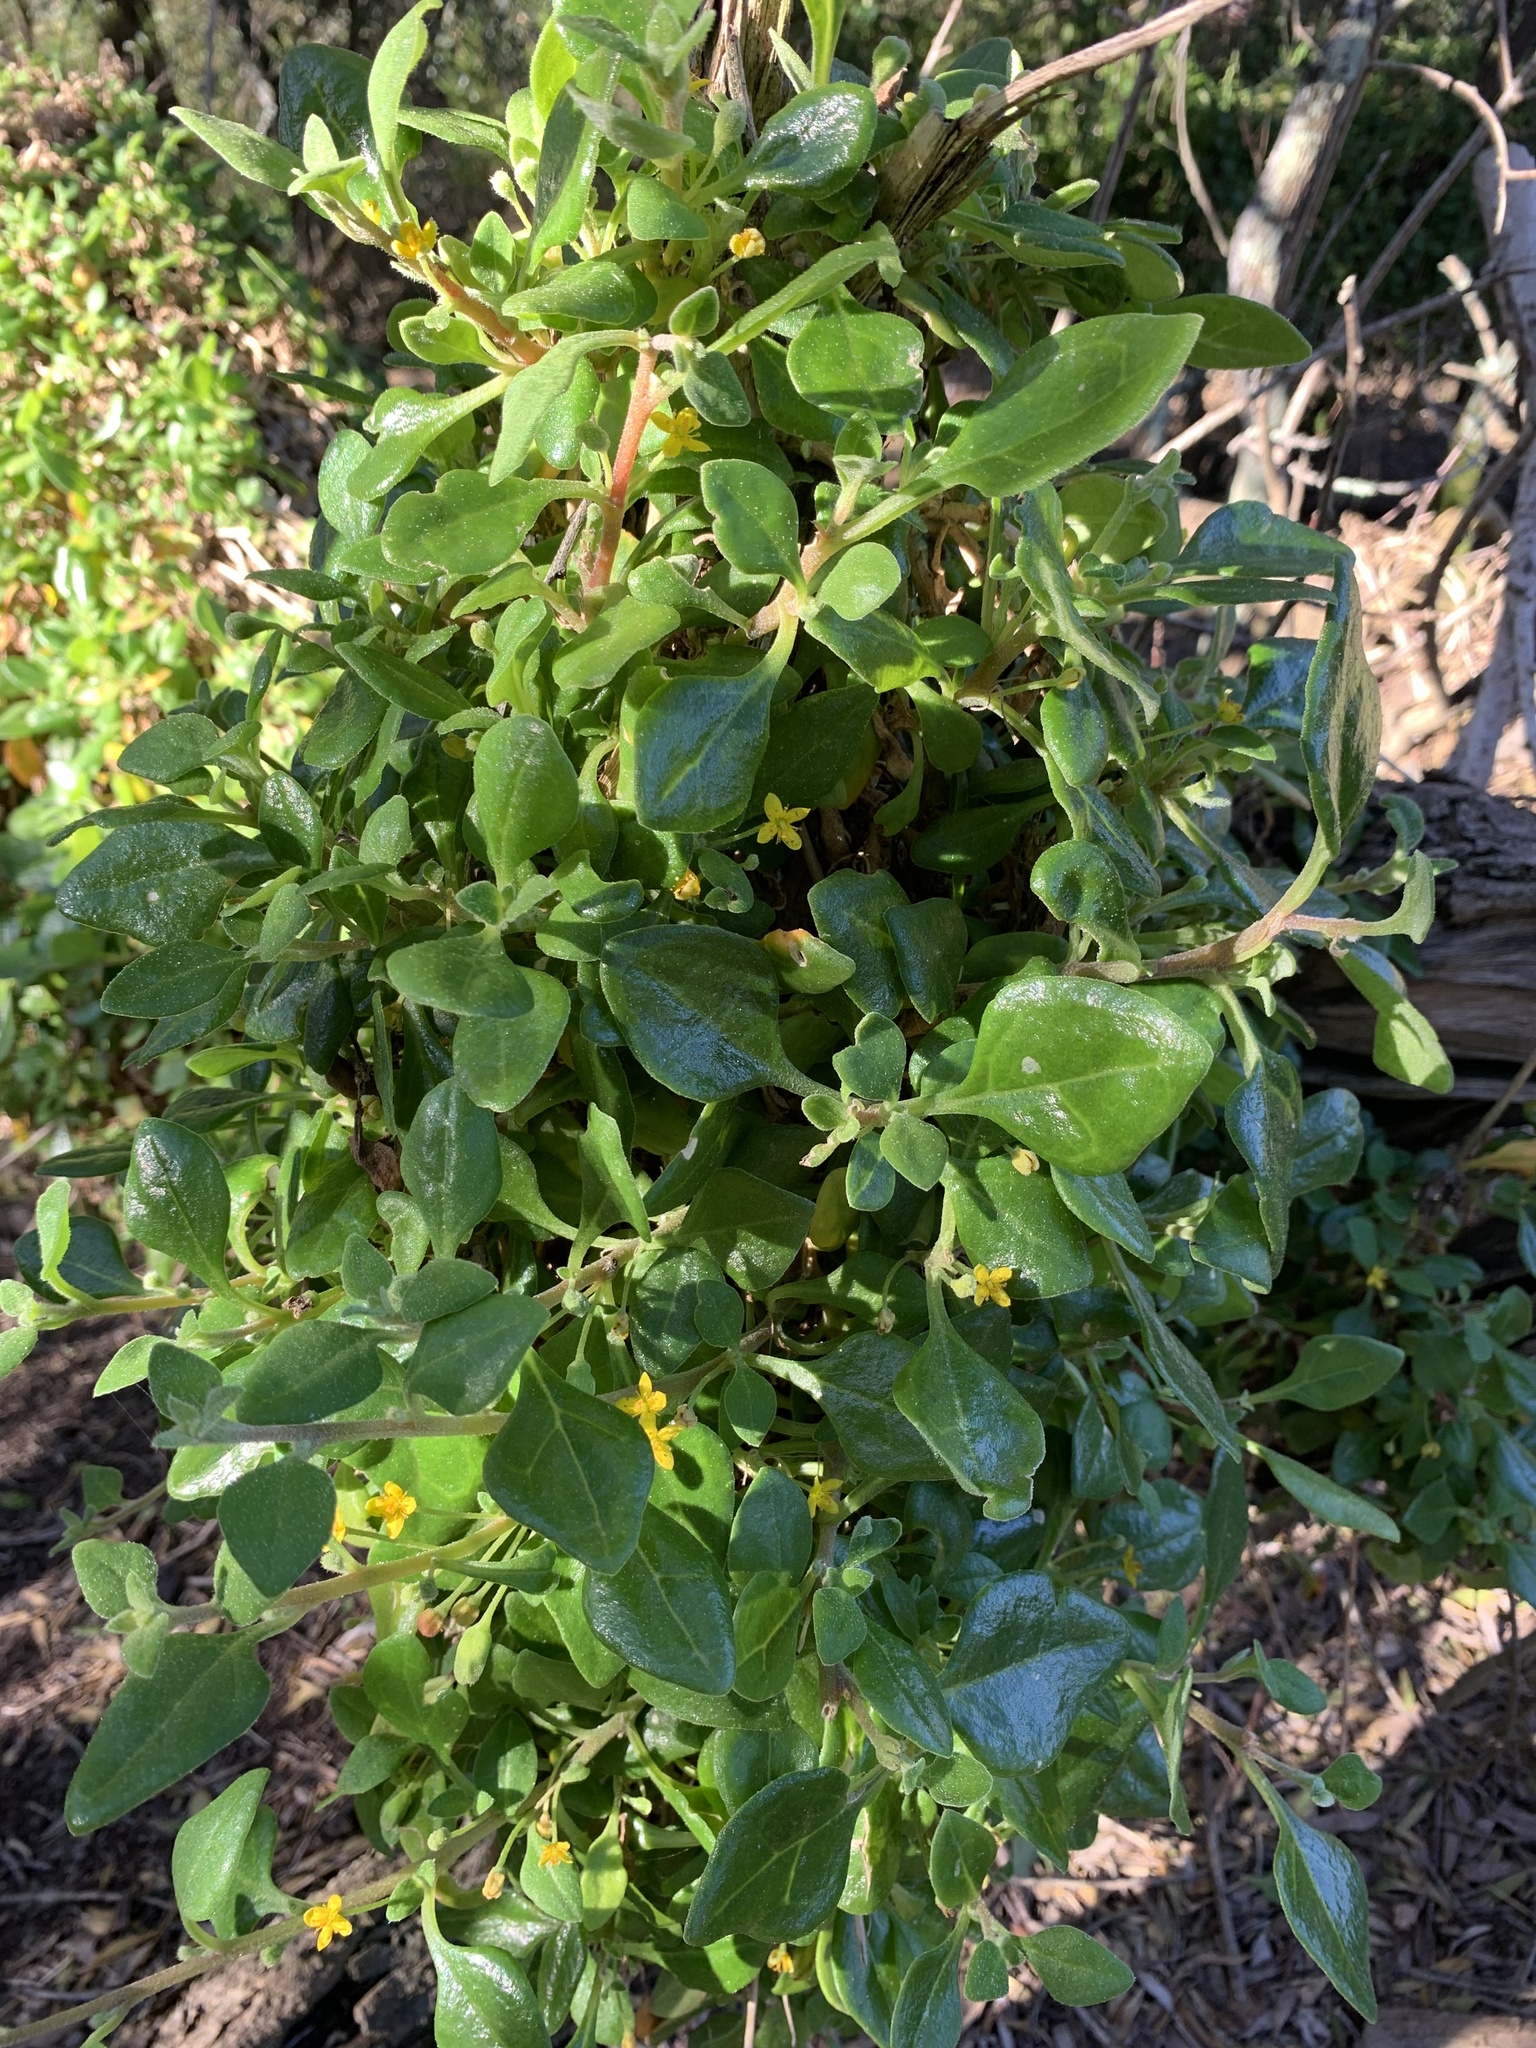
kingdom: Plantae
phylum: Tracheophyta
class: Magnoliopsida
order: Caryophyllales
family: Aizoaceae
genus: Tetragonia
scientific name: Tetragonia implexicoma
